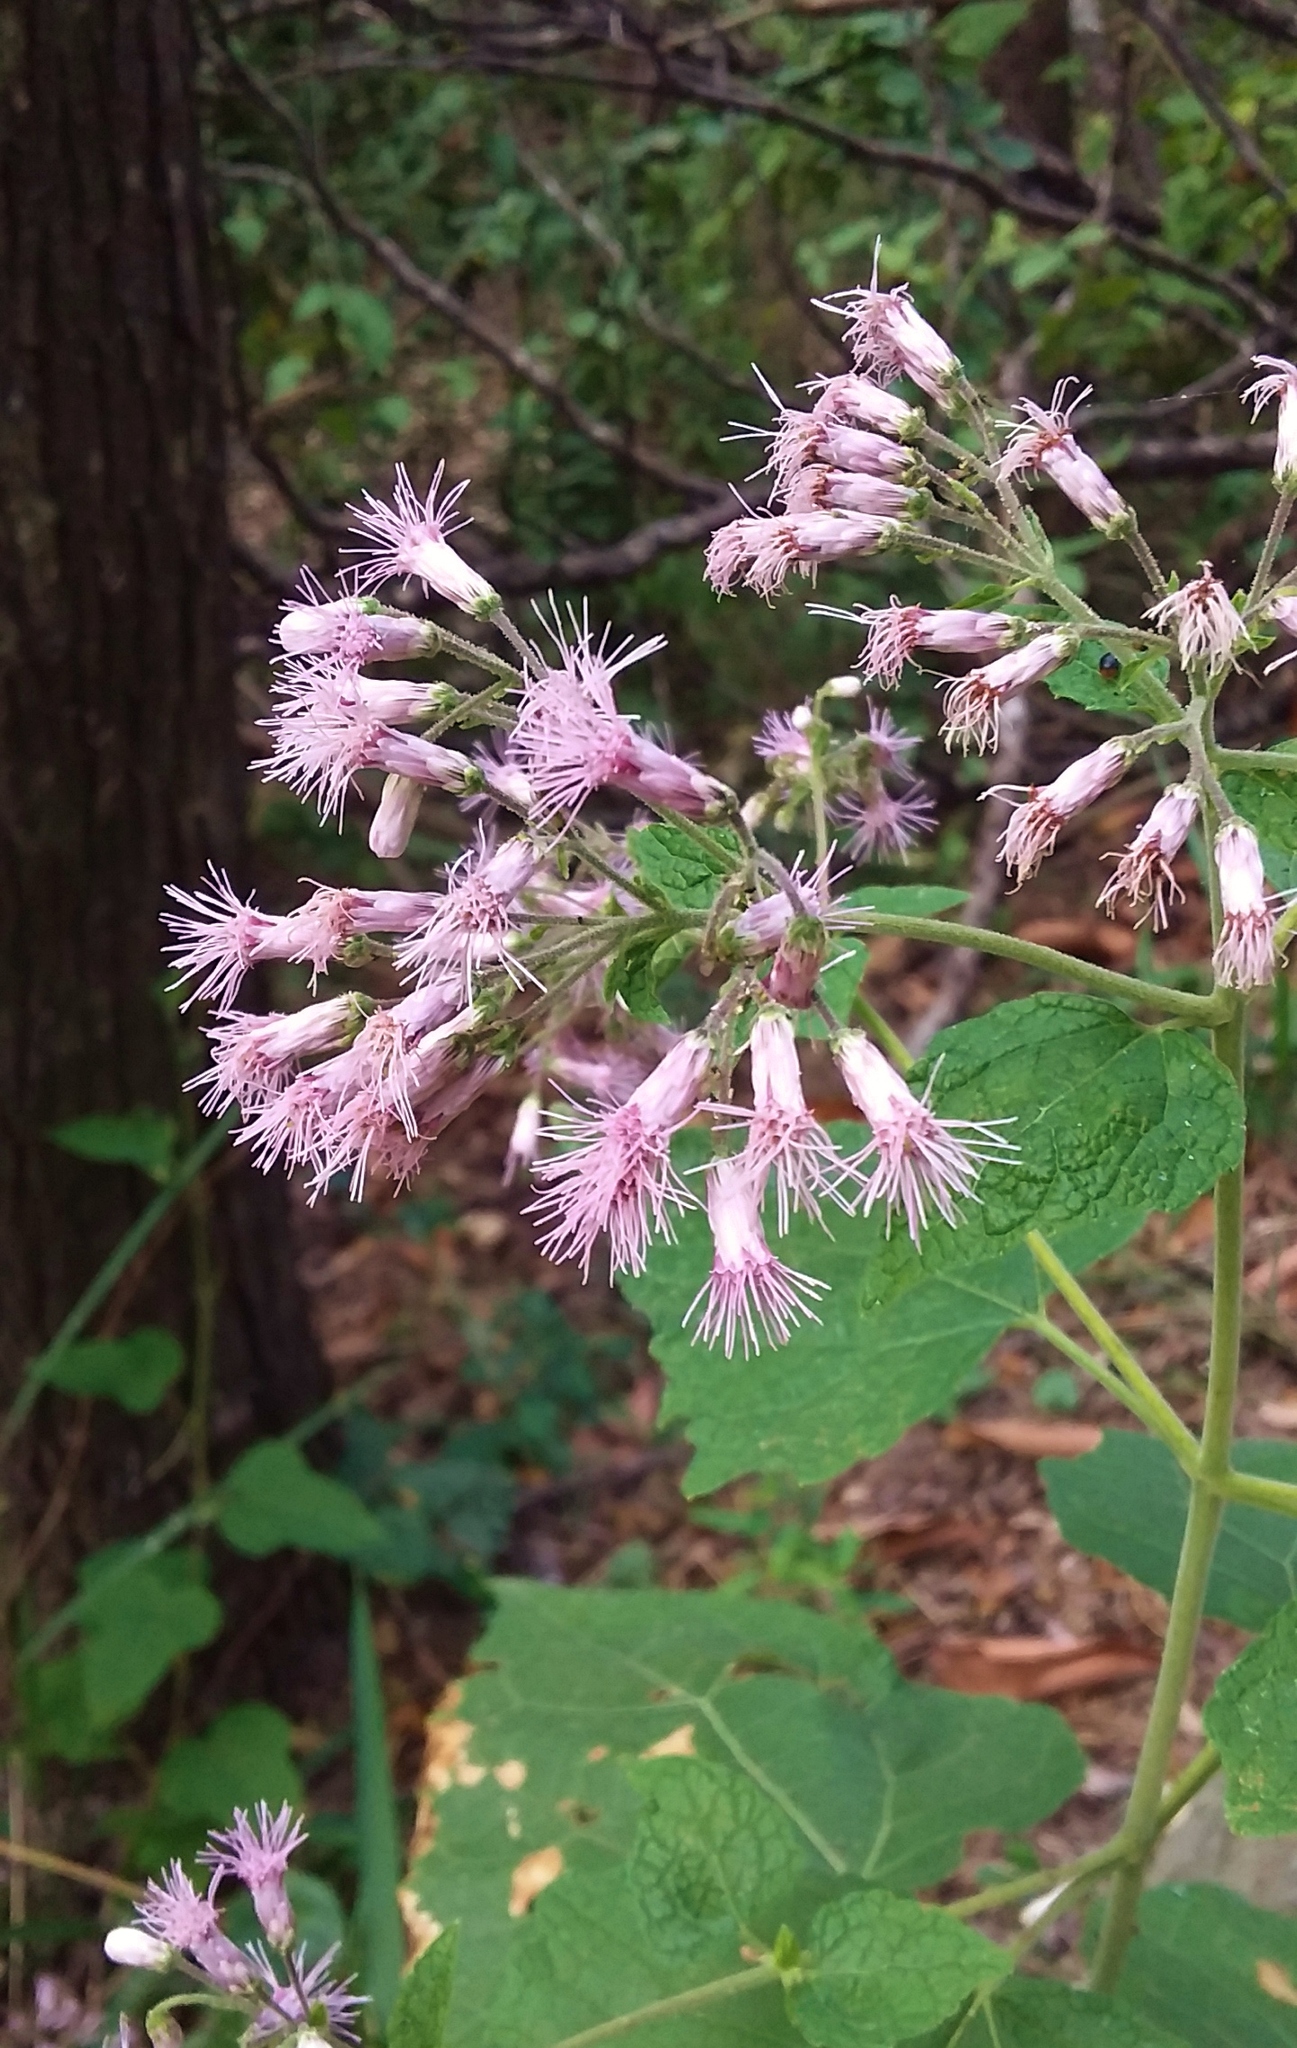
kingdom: Plantae
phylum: Tracheophyta
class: Magnoliopsida
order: Asterales
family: Asteraceae
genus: Peteravenia
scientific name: Peteravenia malvifolia
